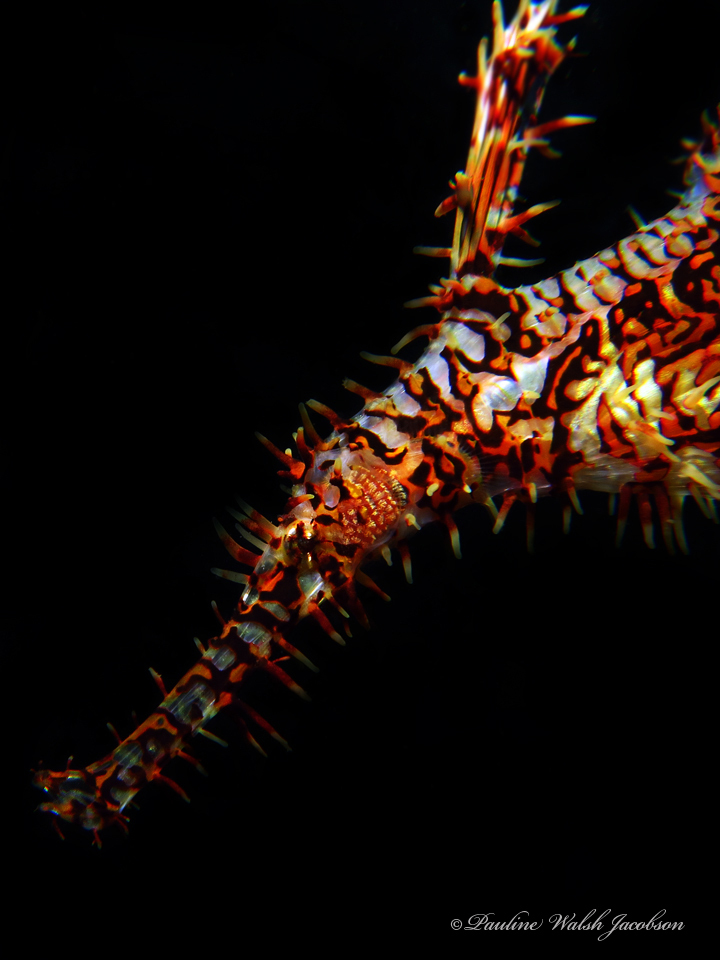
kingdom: Animalia
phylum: Chordata
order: Syngnathiformes
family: Solenostomidae
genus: Solenostomus
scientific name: Solenostomus paradoxus
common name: Ghost pipefish
